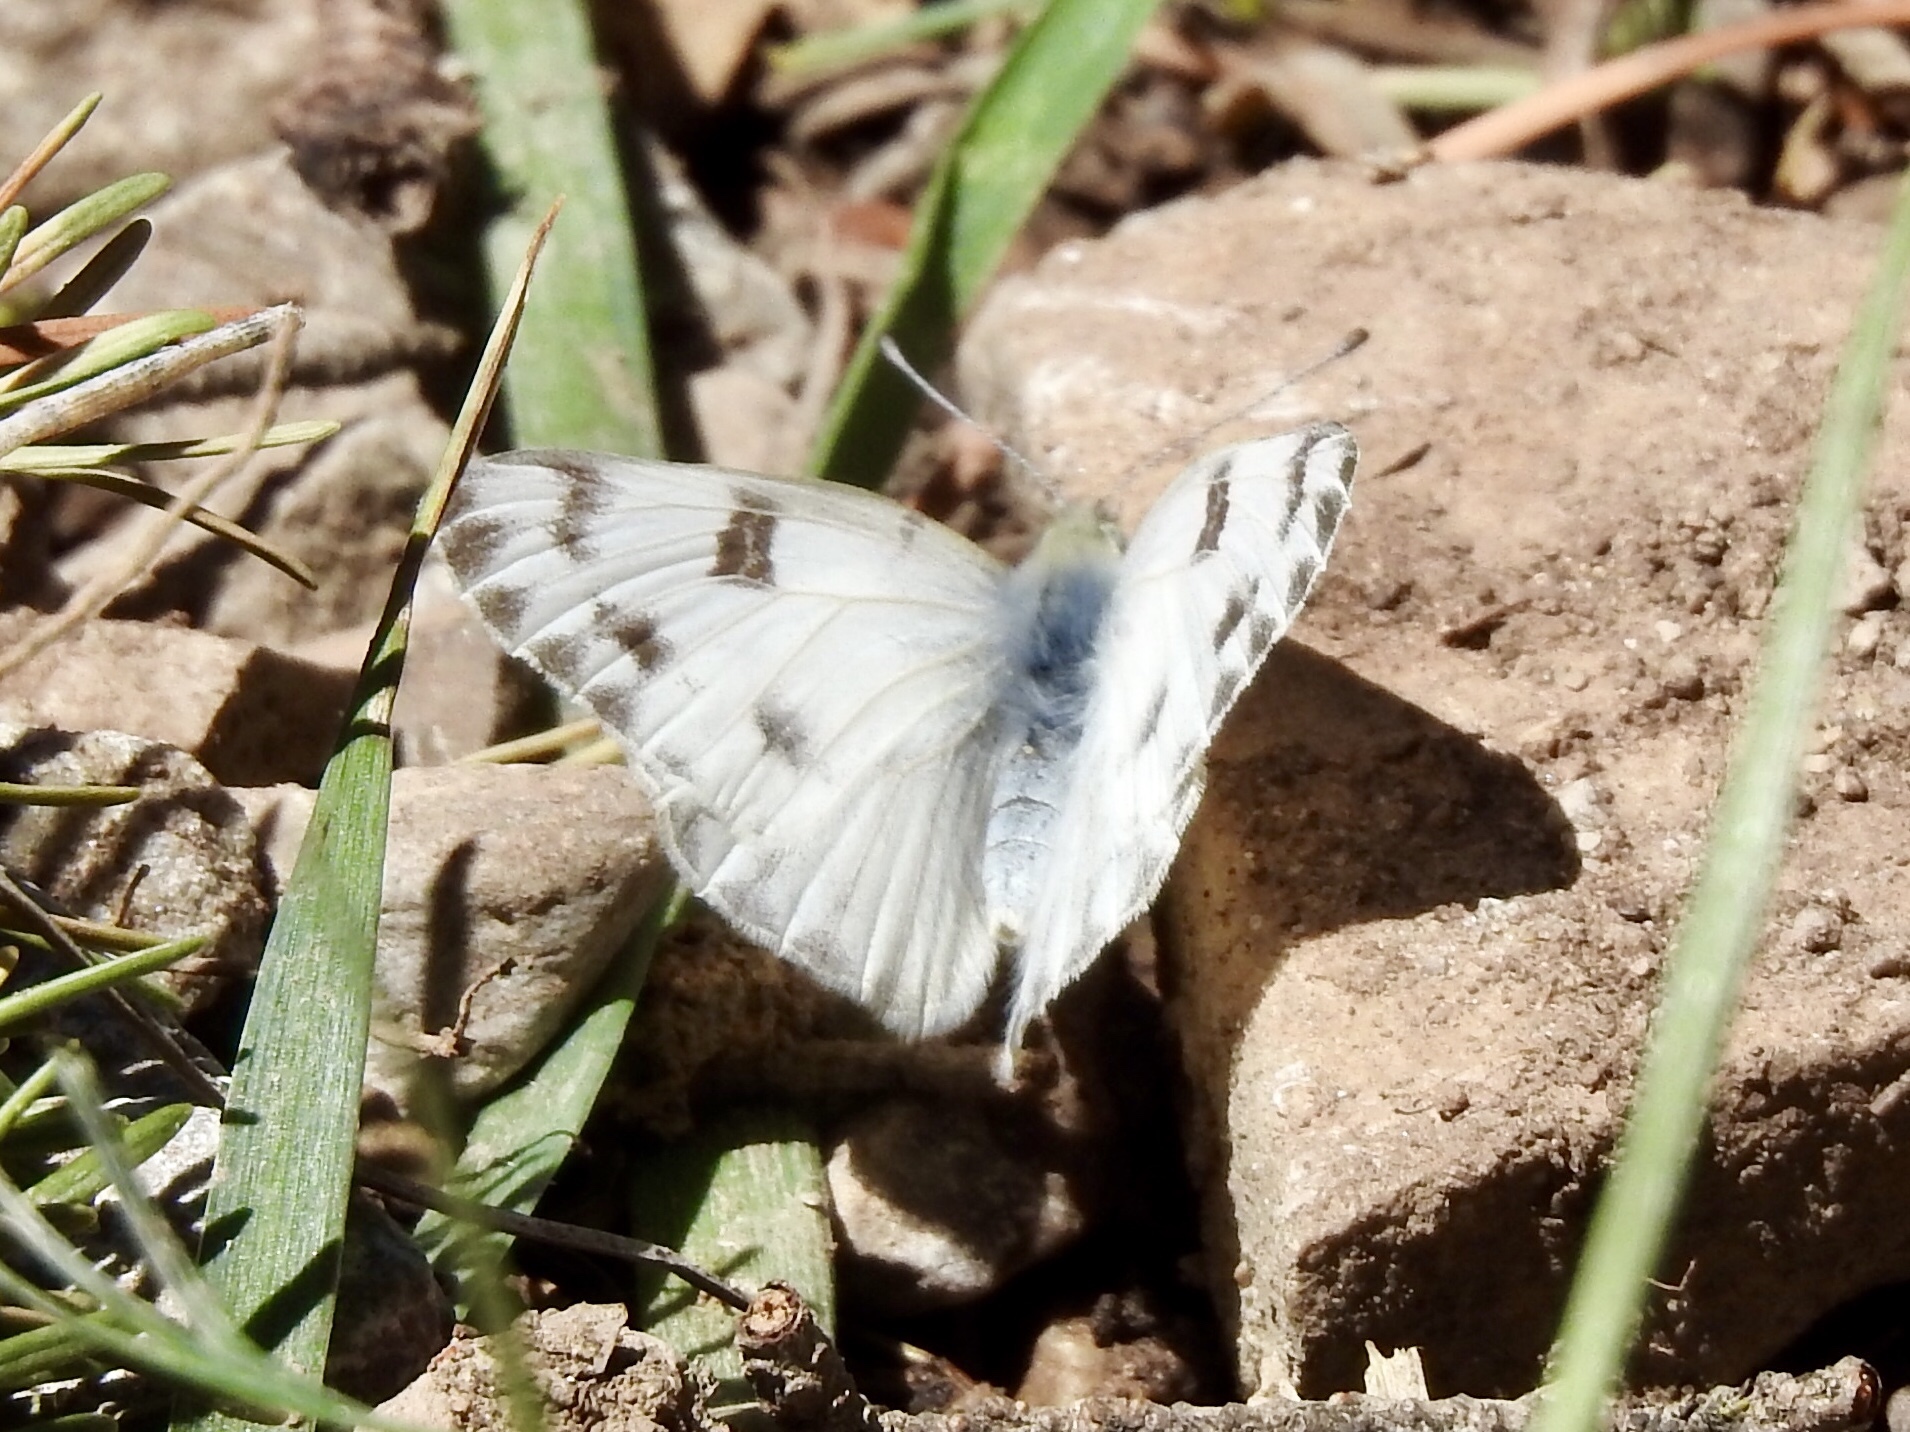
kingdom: Animalia
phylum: Arthropoda
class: Insecta
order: Lepidoptera
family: Pieridae
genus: Pontia
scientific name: Pontia protodice
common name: Checkered white
